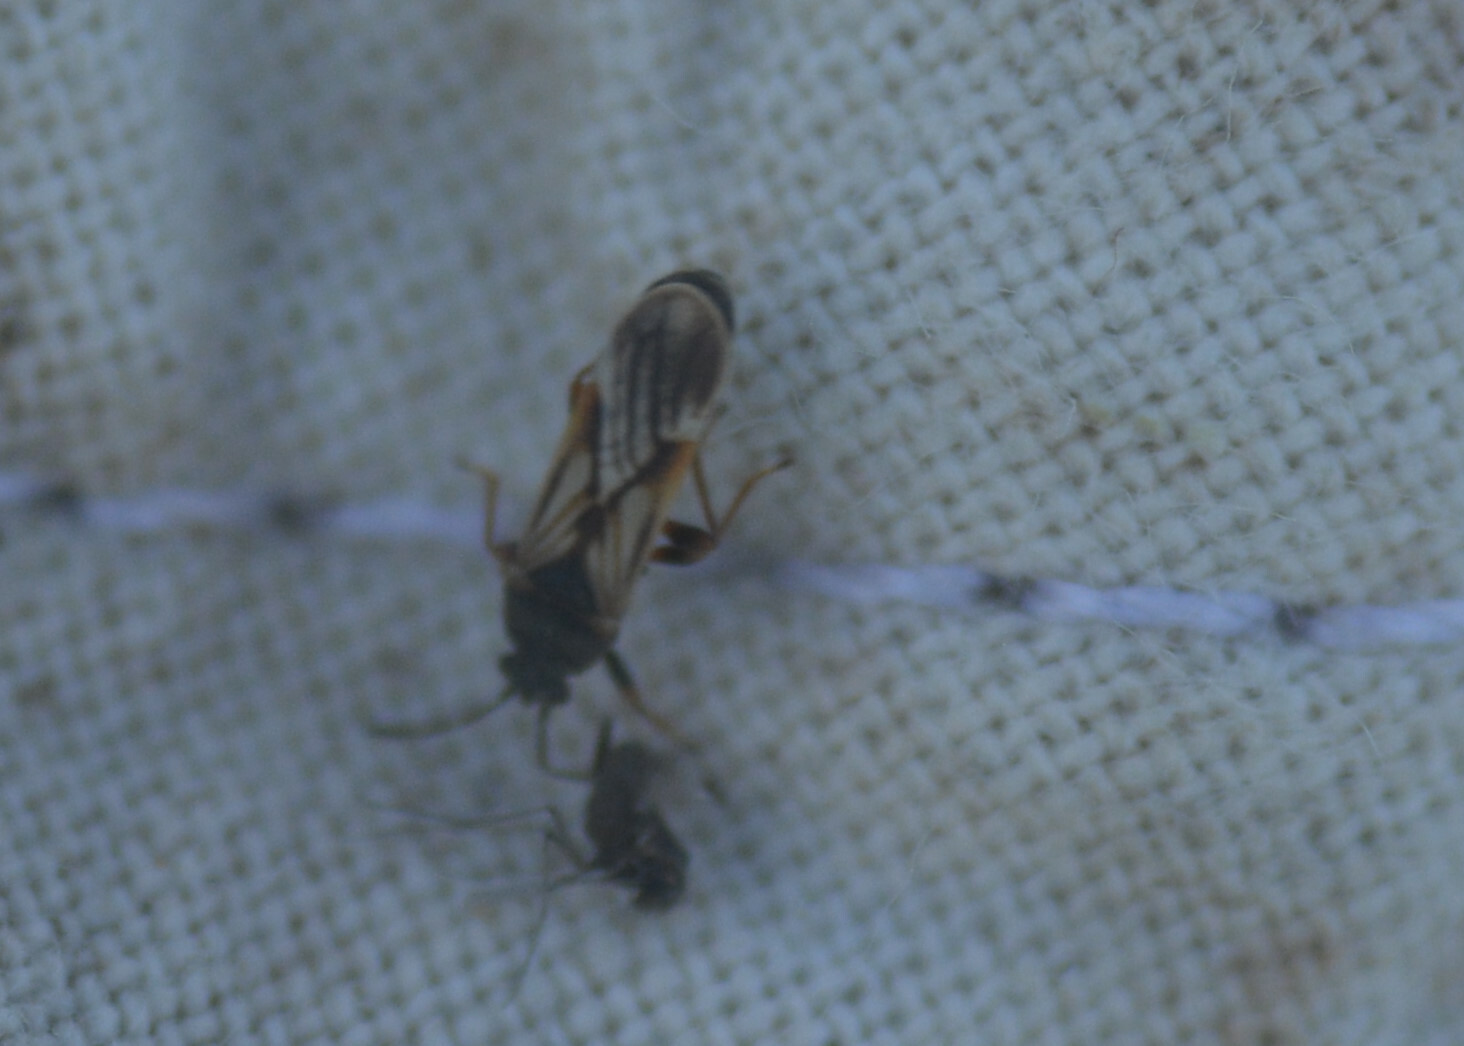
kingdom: Animalia
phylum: Arthropoda
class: Insecta
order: Hemiptera
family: Blissidae
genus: Ischnodemus
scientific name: Ischnodemus sabuleti
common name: European cinchbug
